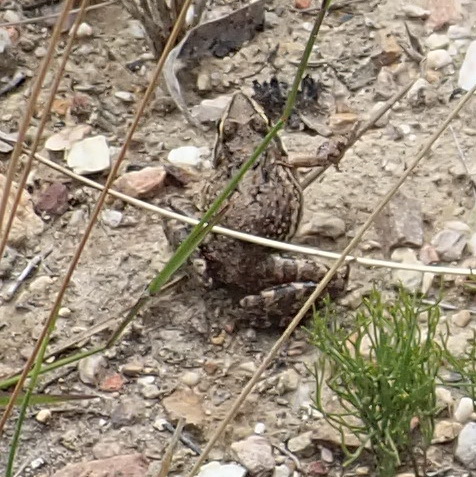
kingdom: Animalia
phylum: Chordata
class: Amphibia
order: Anura
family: Pyxicephalidae
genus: Amietia
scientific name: Amietia fuscigula
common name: Cape rana
